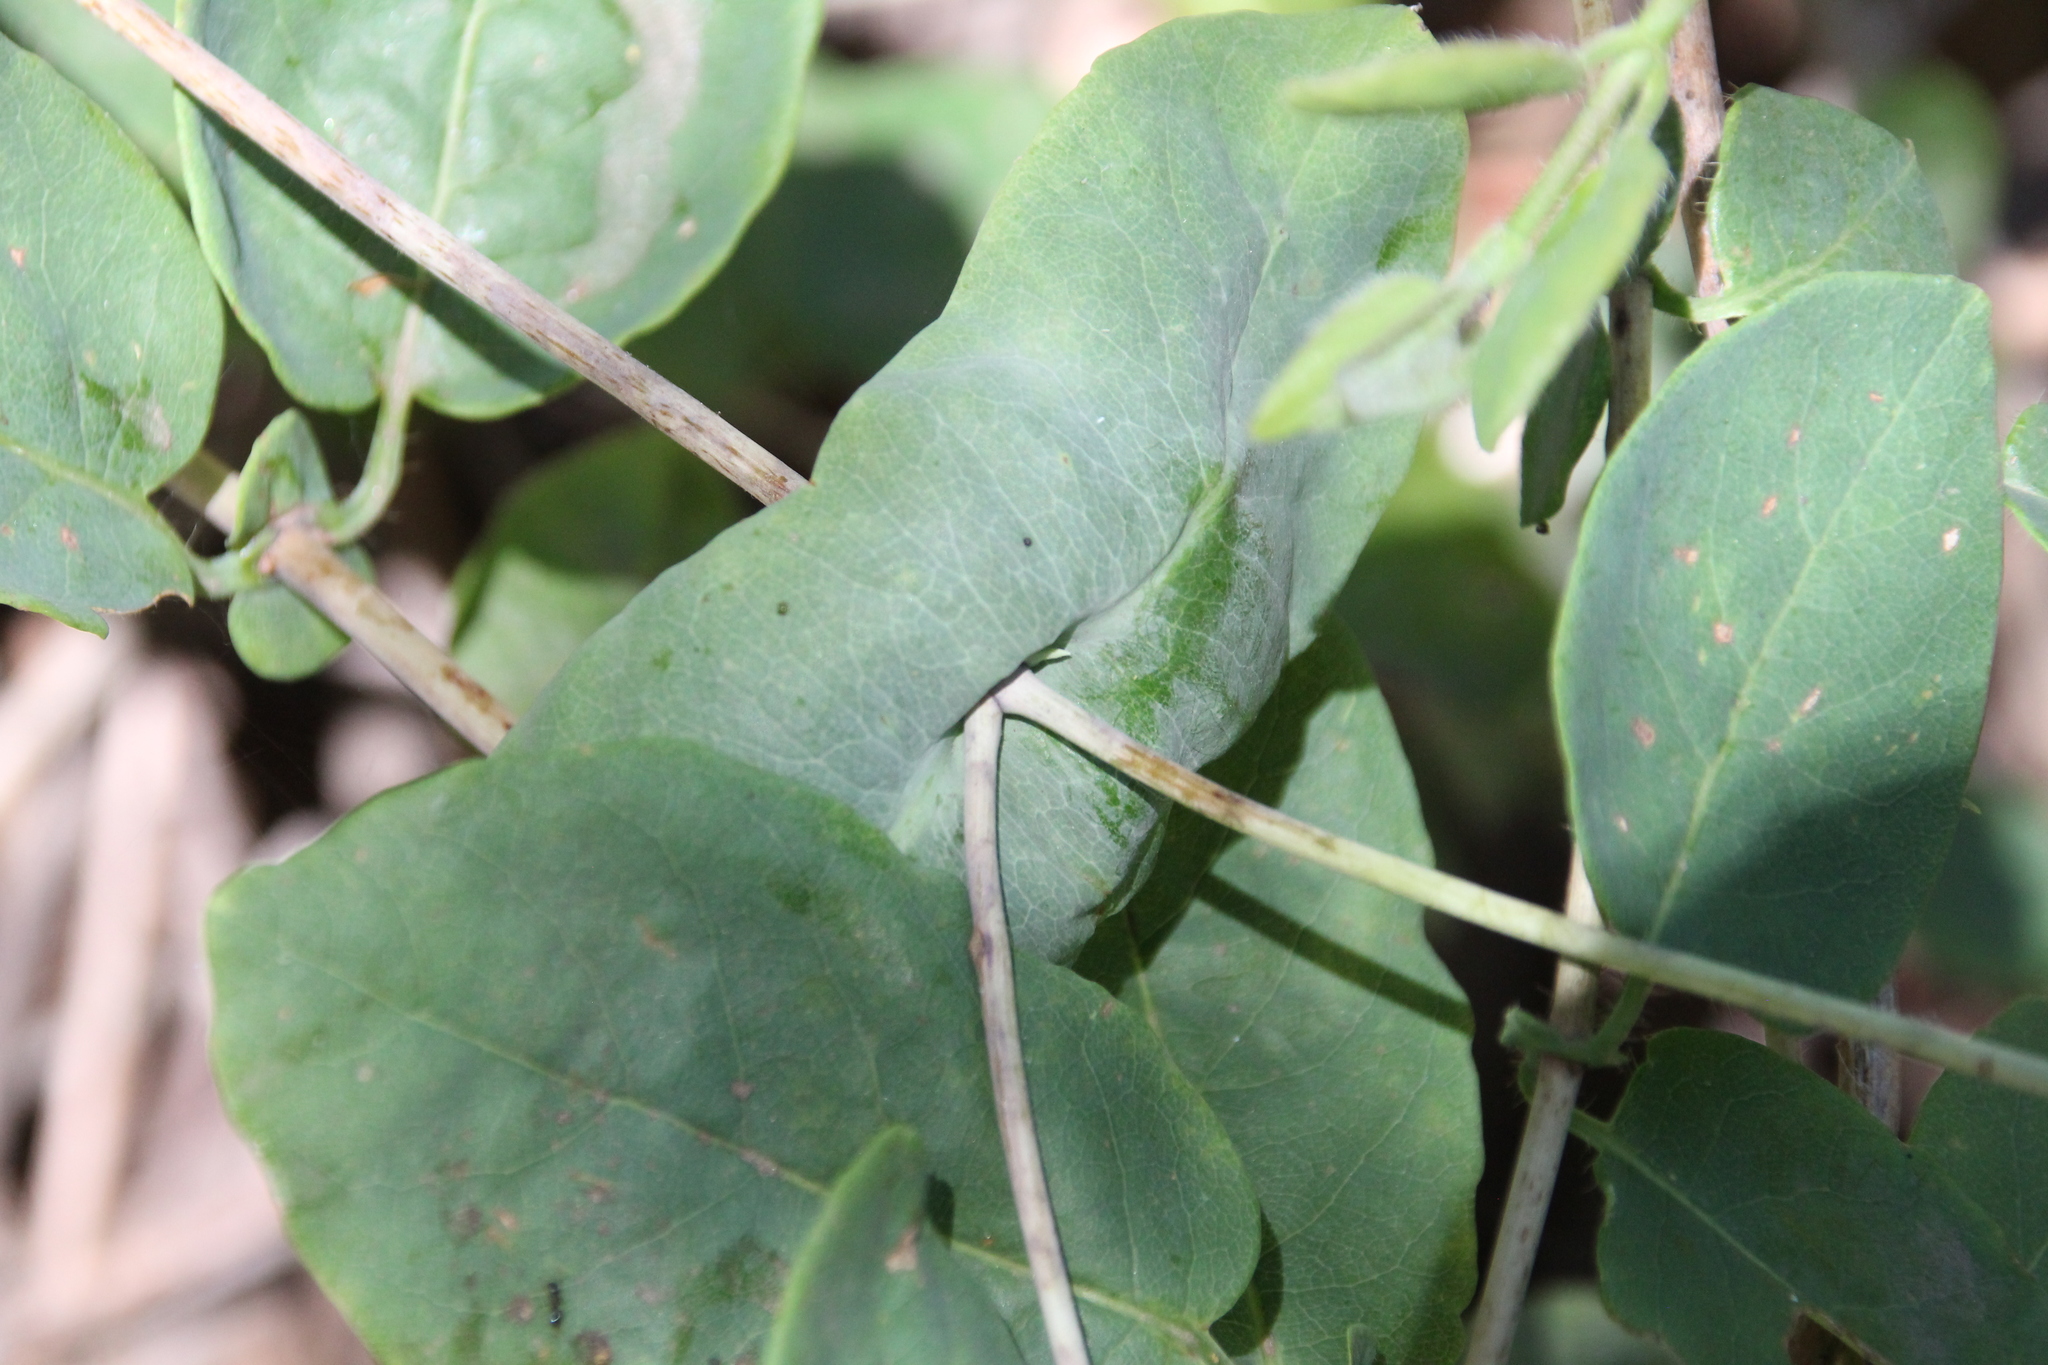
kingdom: Plantae
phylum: Tracheophyta
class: Magnoliopsida
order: Dipsacales
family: Caprifoliaceae
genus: Lonicera
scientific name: Lonicera hispidula
